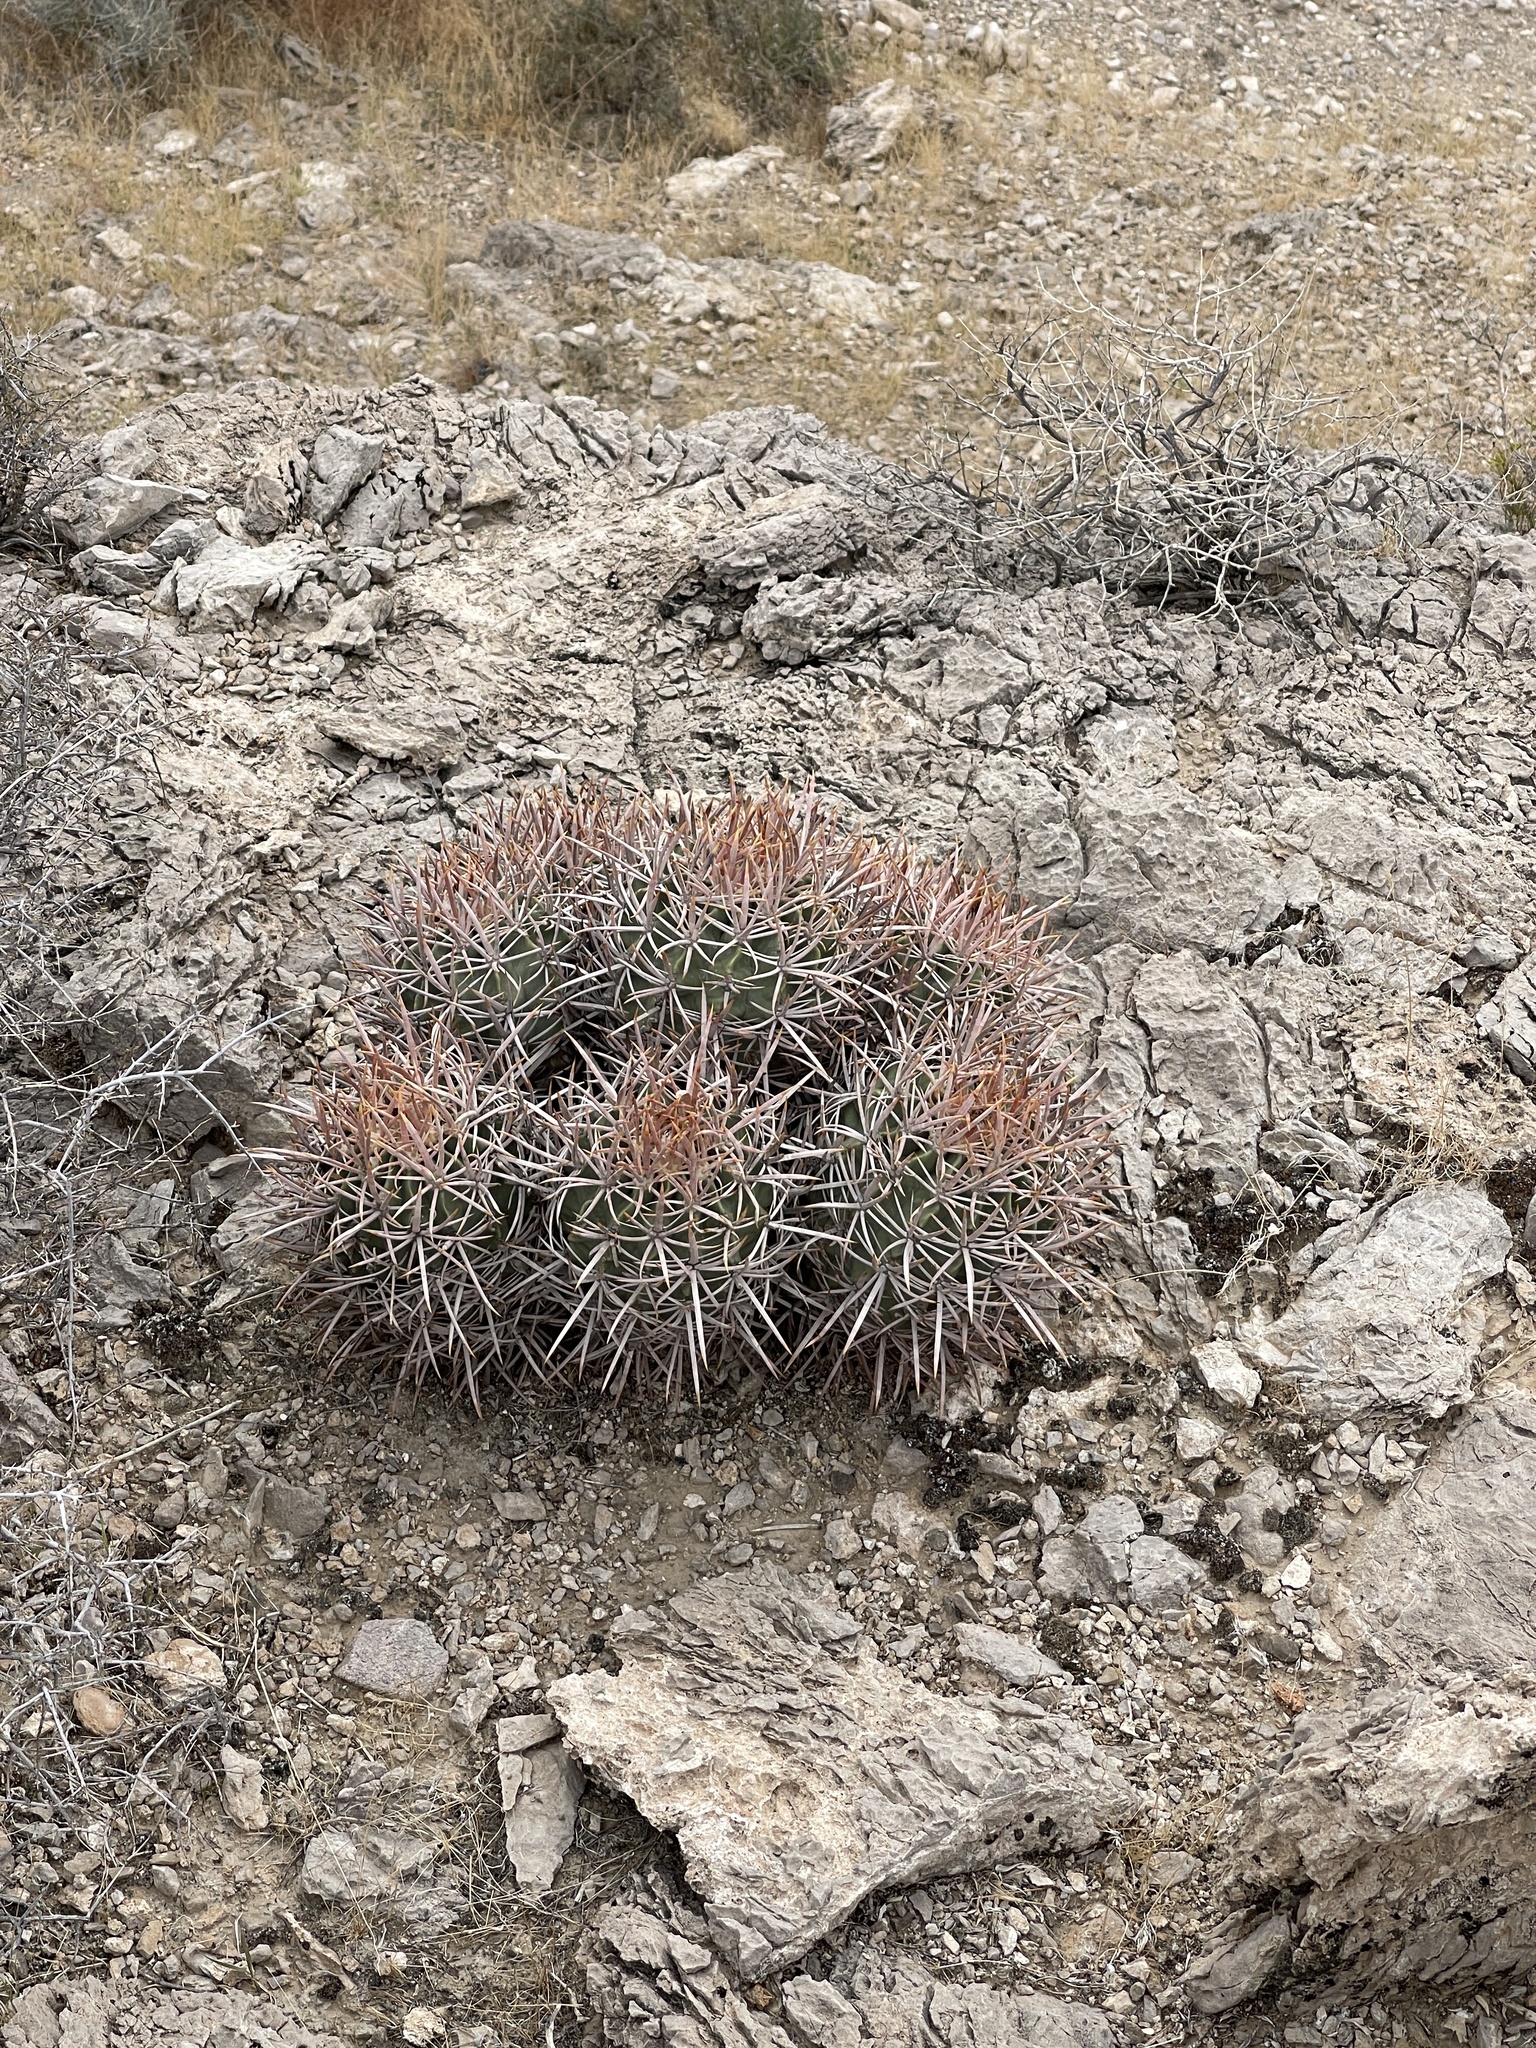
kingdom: Plantae
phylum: Tracheophyta
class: Magnoliopsida
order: Caryophyllales
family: Cactaceae
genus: Echinocactus
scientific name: Echinocactus polycephalus
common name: Cottontop cactus
